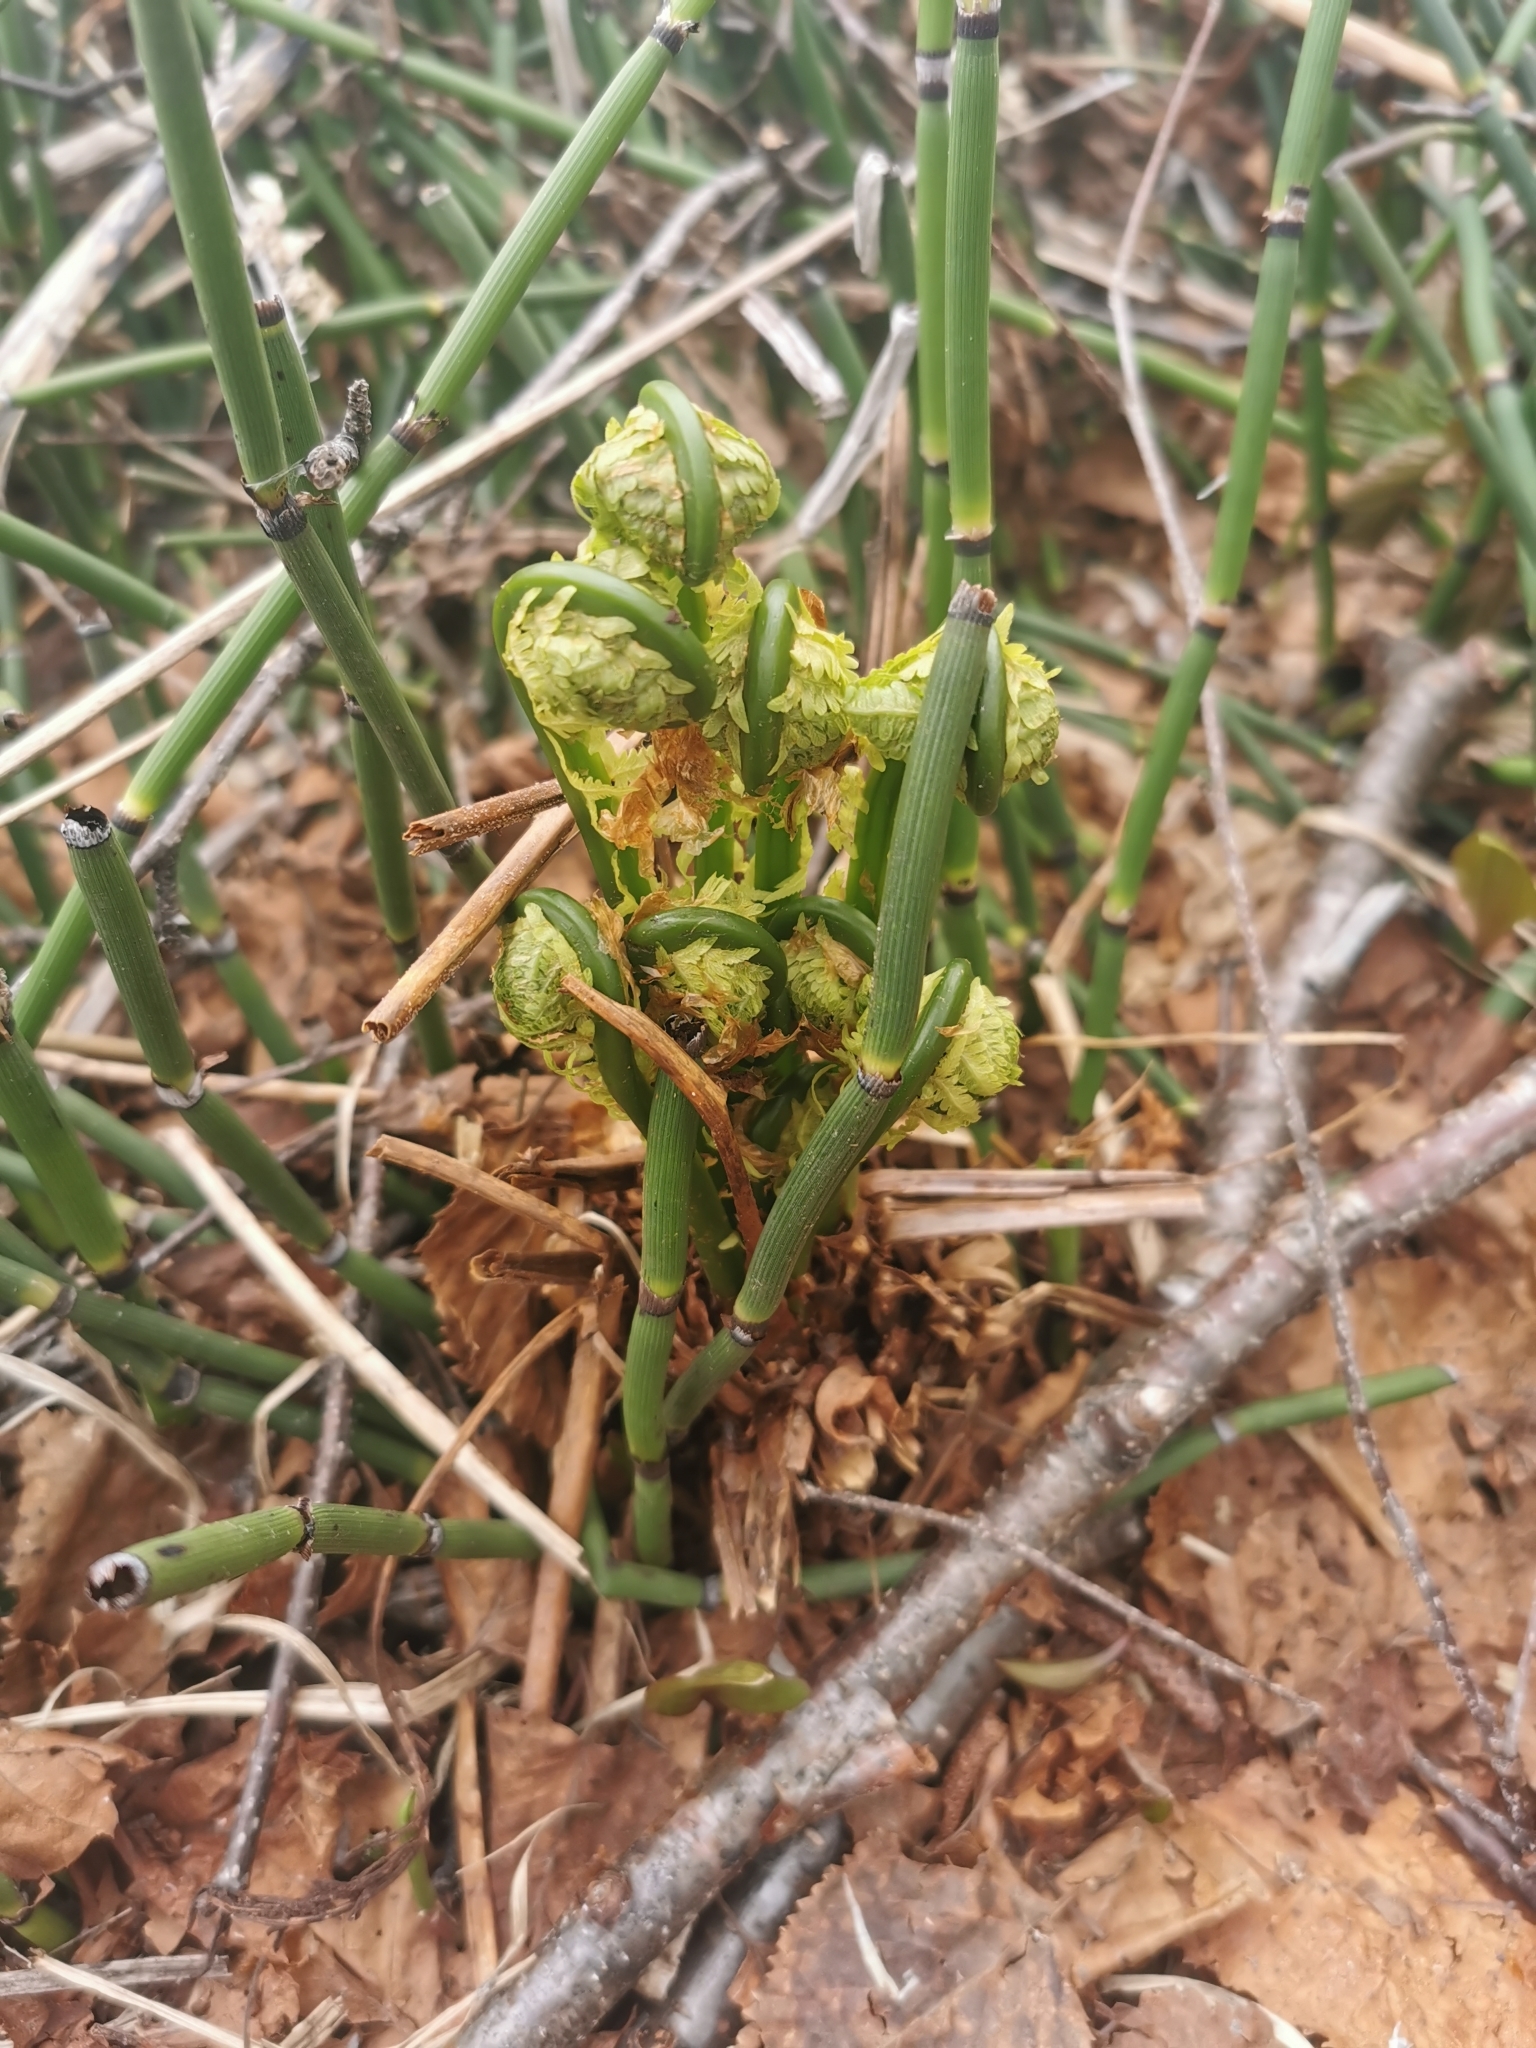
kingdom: Plantae
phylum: Tracheophyta
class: Polypodiopsida
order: Polypodiales
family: Onocleaceae
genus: Matteuccia
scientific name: Matteuccia struthiopteris
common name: Ostrich fern
